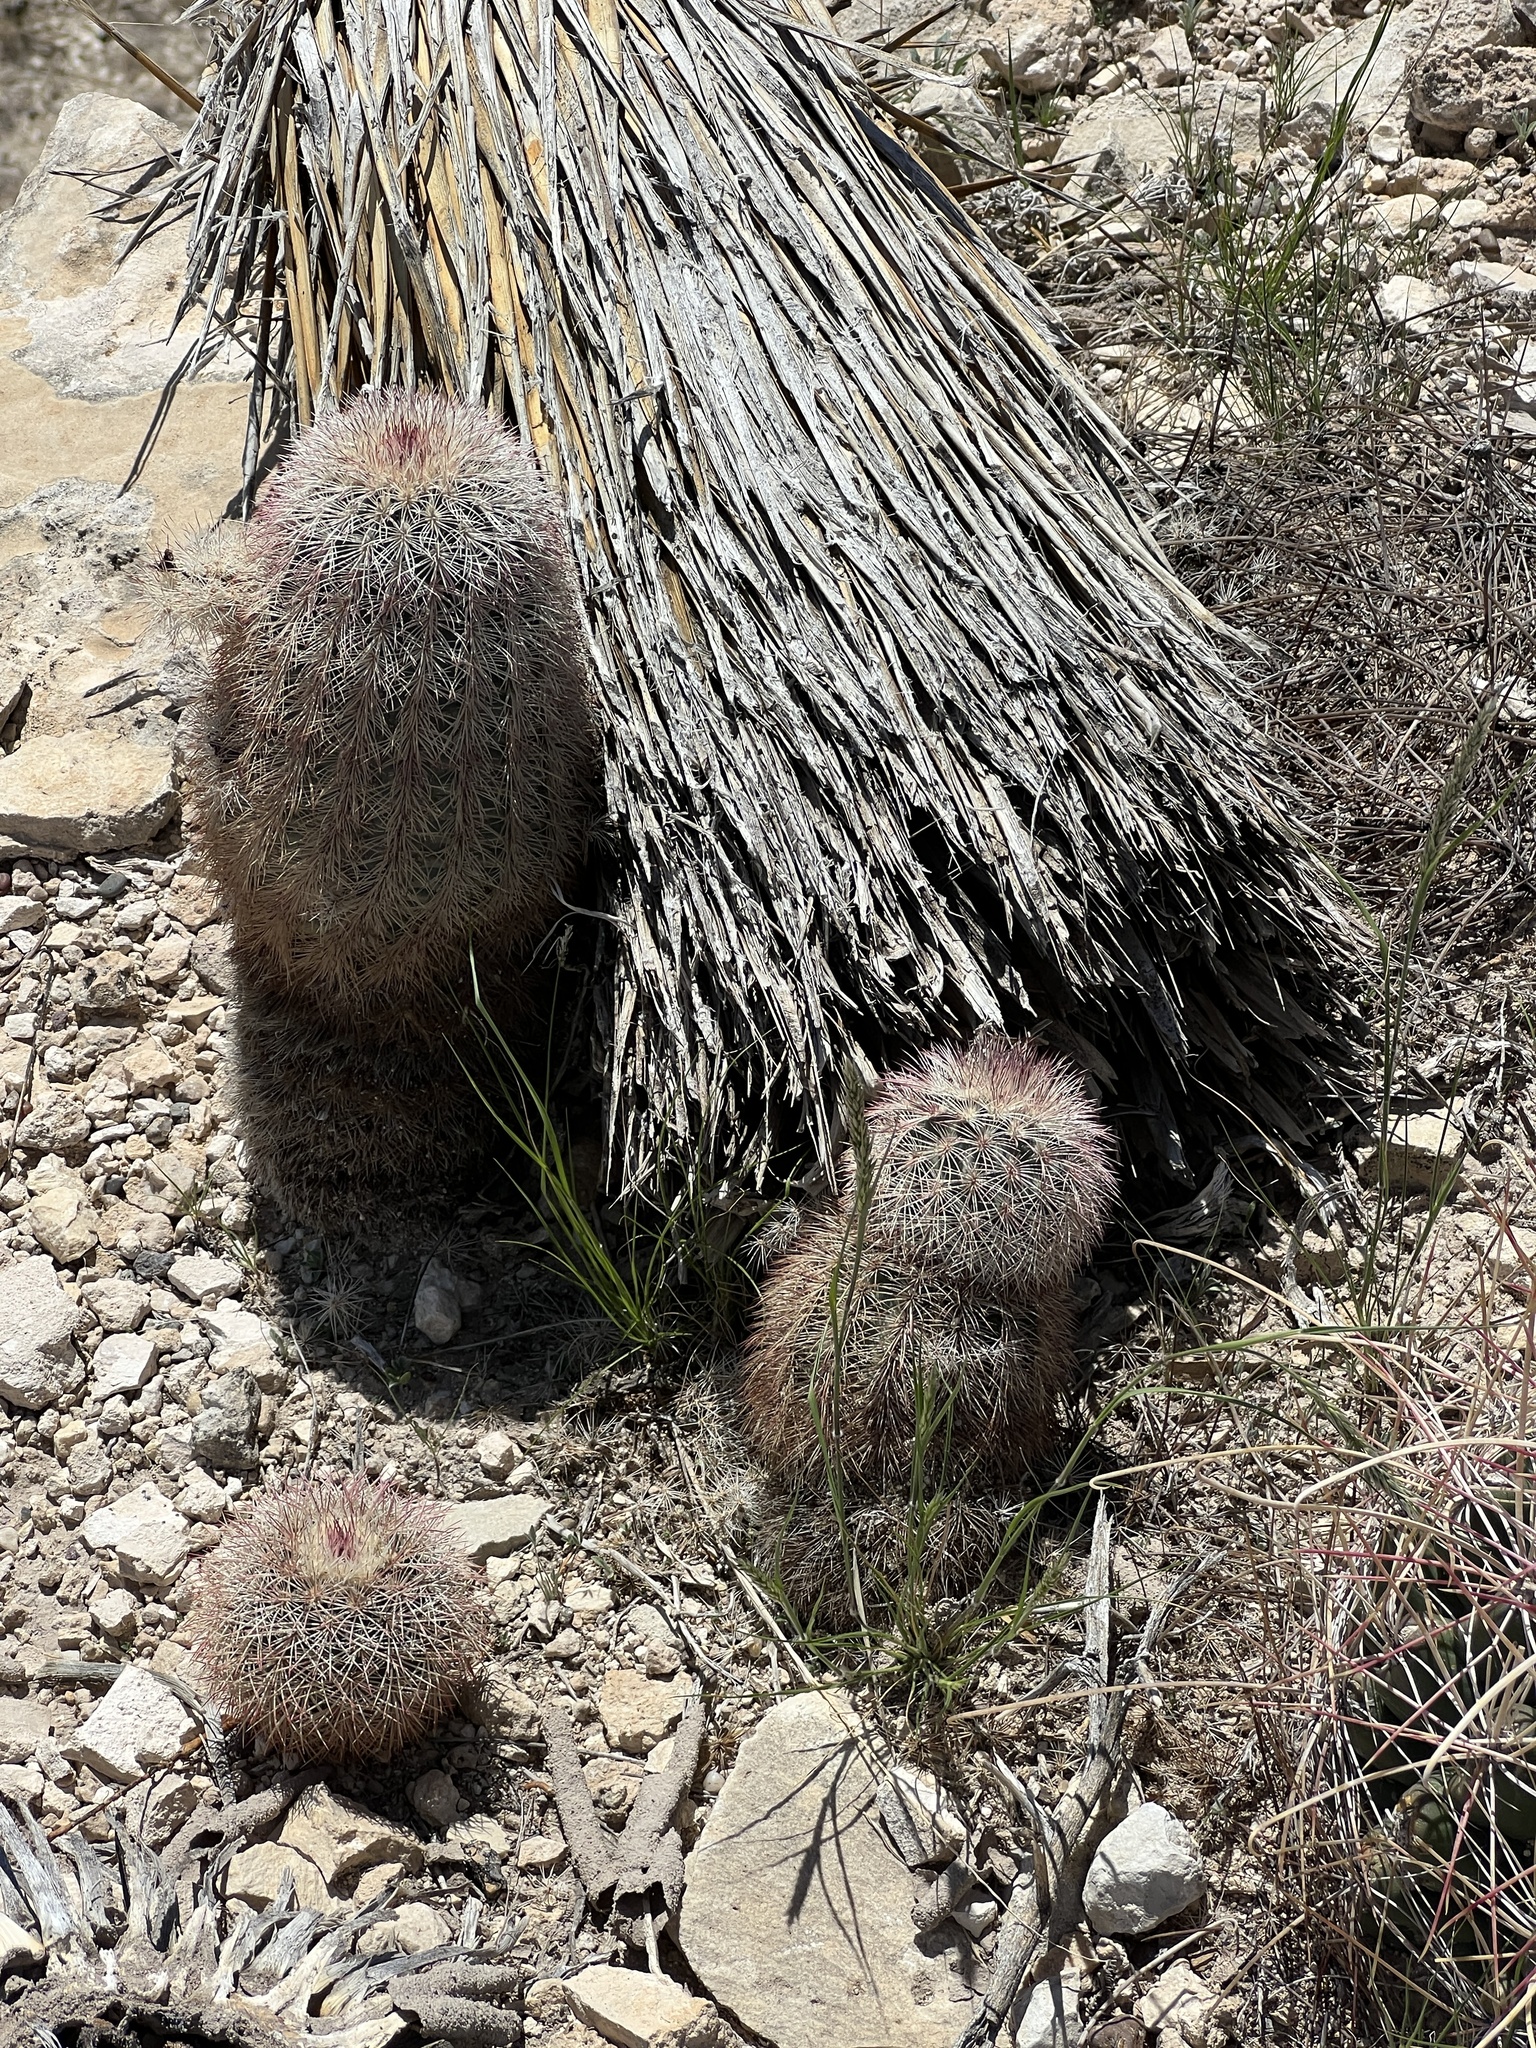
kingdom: Plantae
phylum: Tracheophyta
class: Magnoliopsida
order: Caryophyllales
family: Cactaceae
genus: Echinocereus
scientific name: Echinocereus dasyacanthus
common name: Spiny hedgehog cactus
